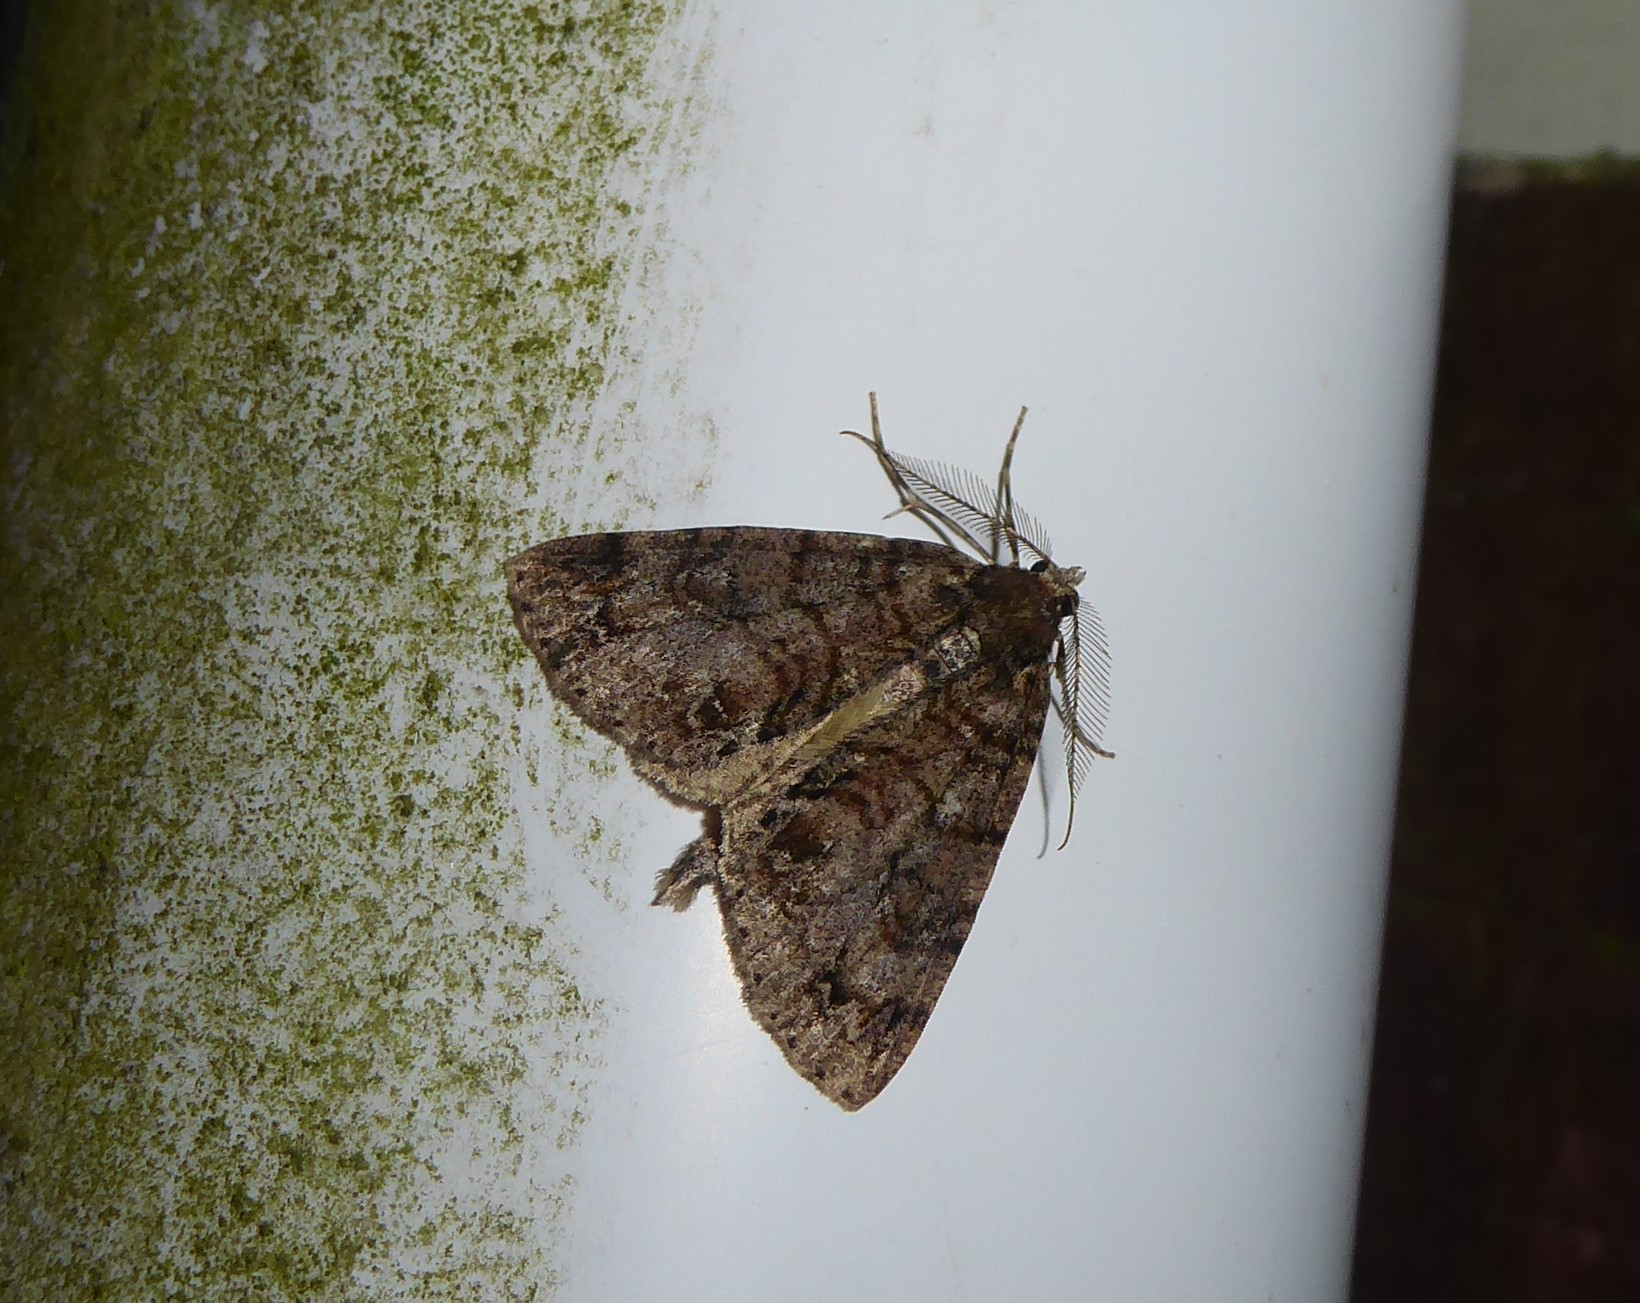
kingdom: Animalia
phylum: Arthropoda
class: Insecta
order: Lepidoptera
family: Geometridae
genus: Pseudocoremia
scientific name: Pseudocoremia suavis
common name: Common forest looper
